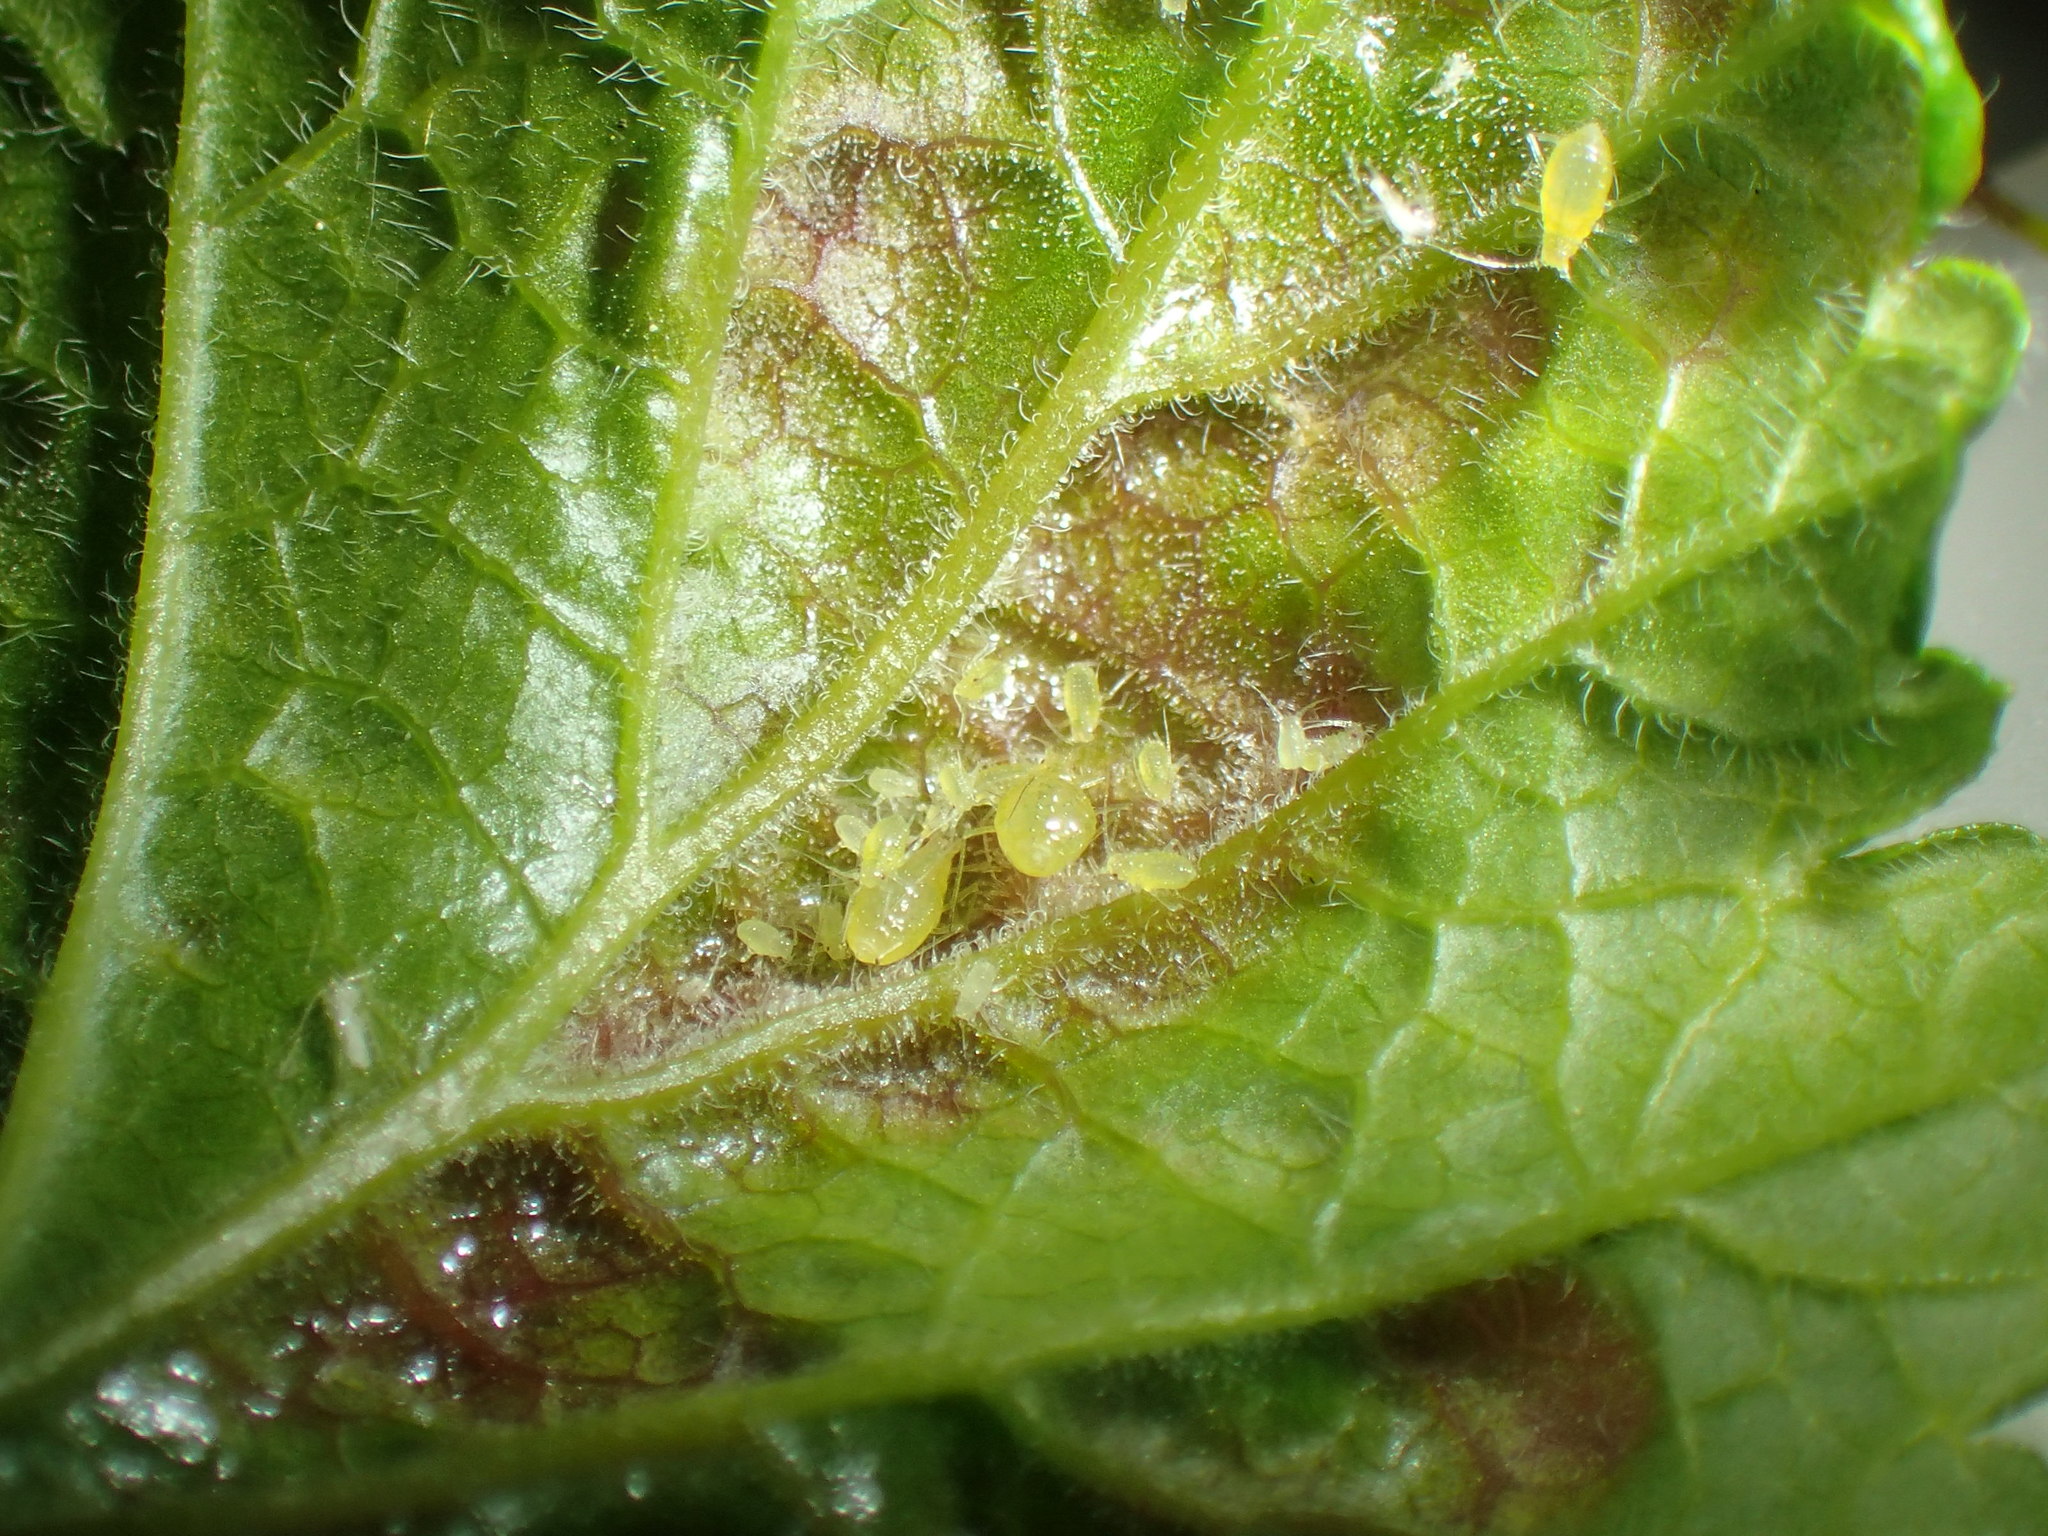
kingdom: Animalia
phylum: Arthropoda
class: Insecta
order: Hemiptera
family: Aphididae
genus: Cryptomyzus
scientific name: Cryptomyzus ribis
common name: Currant aphid
